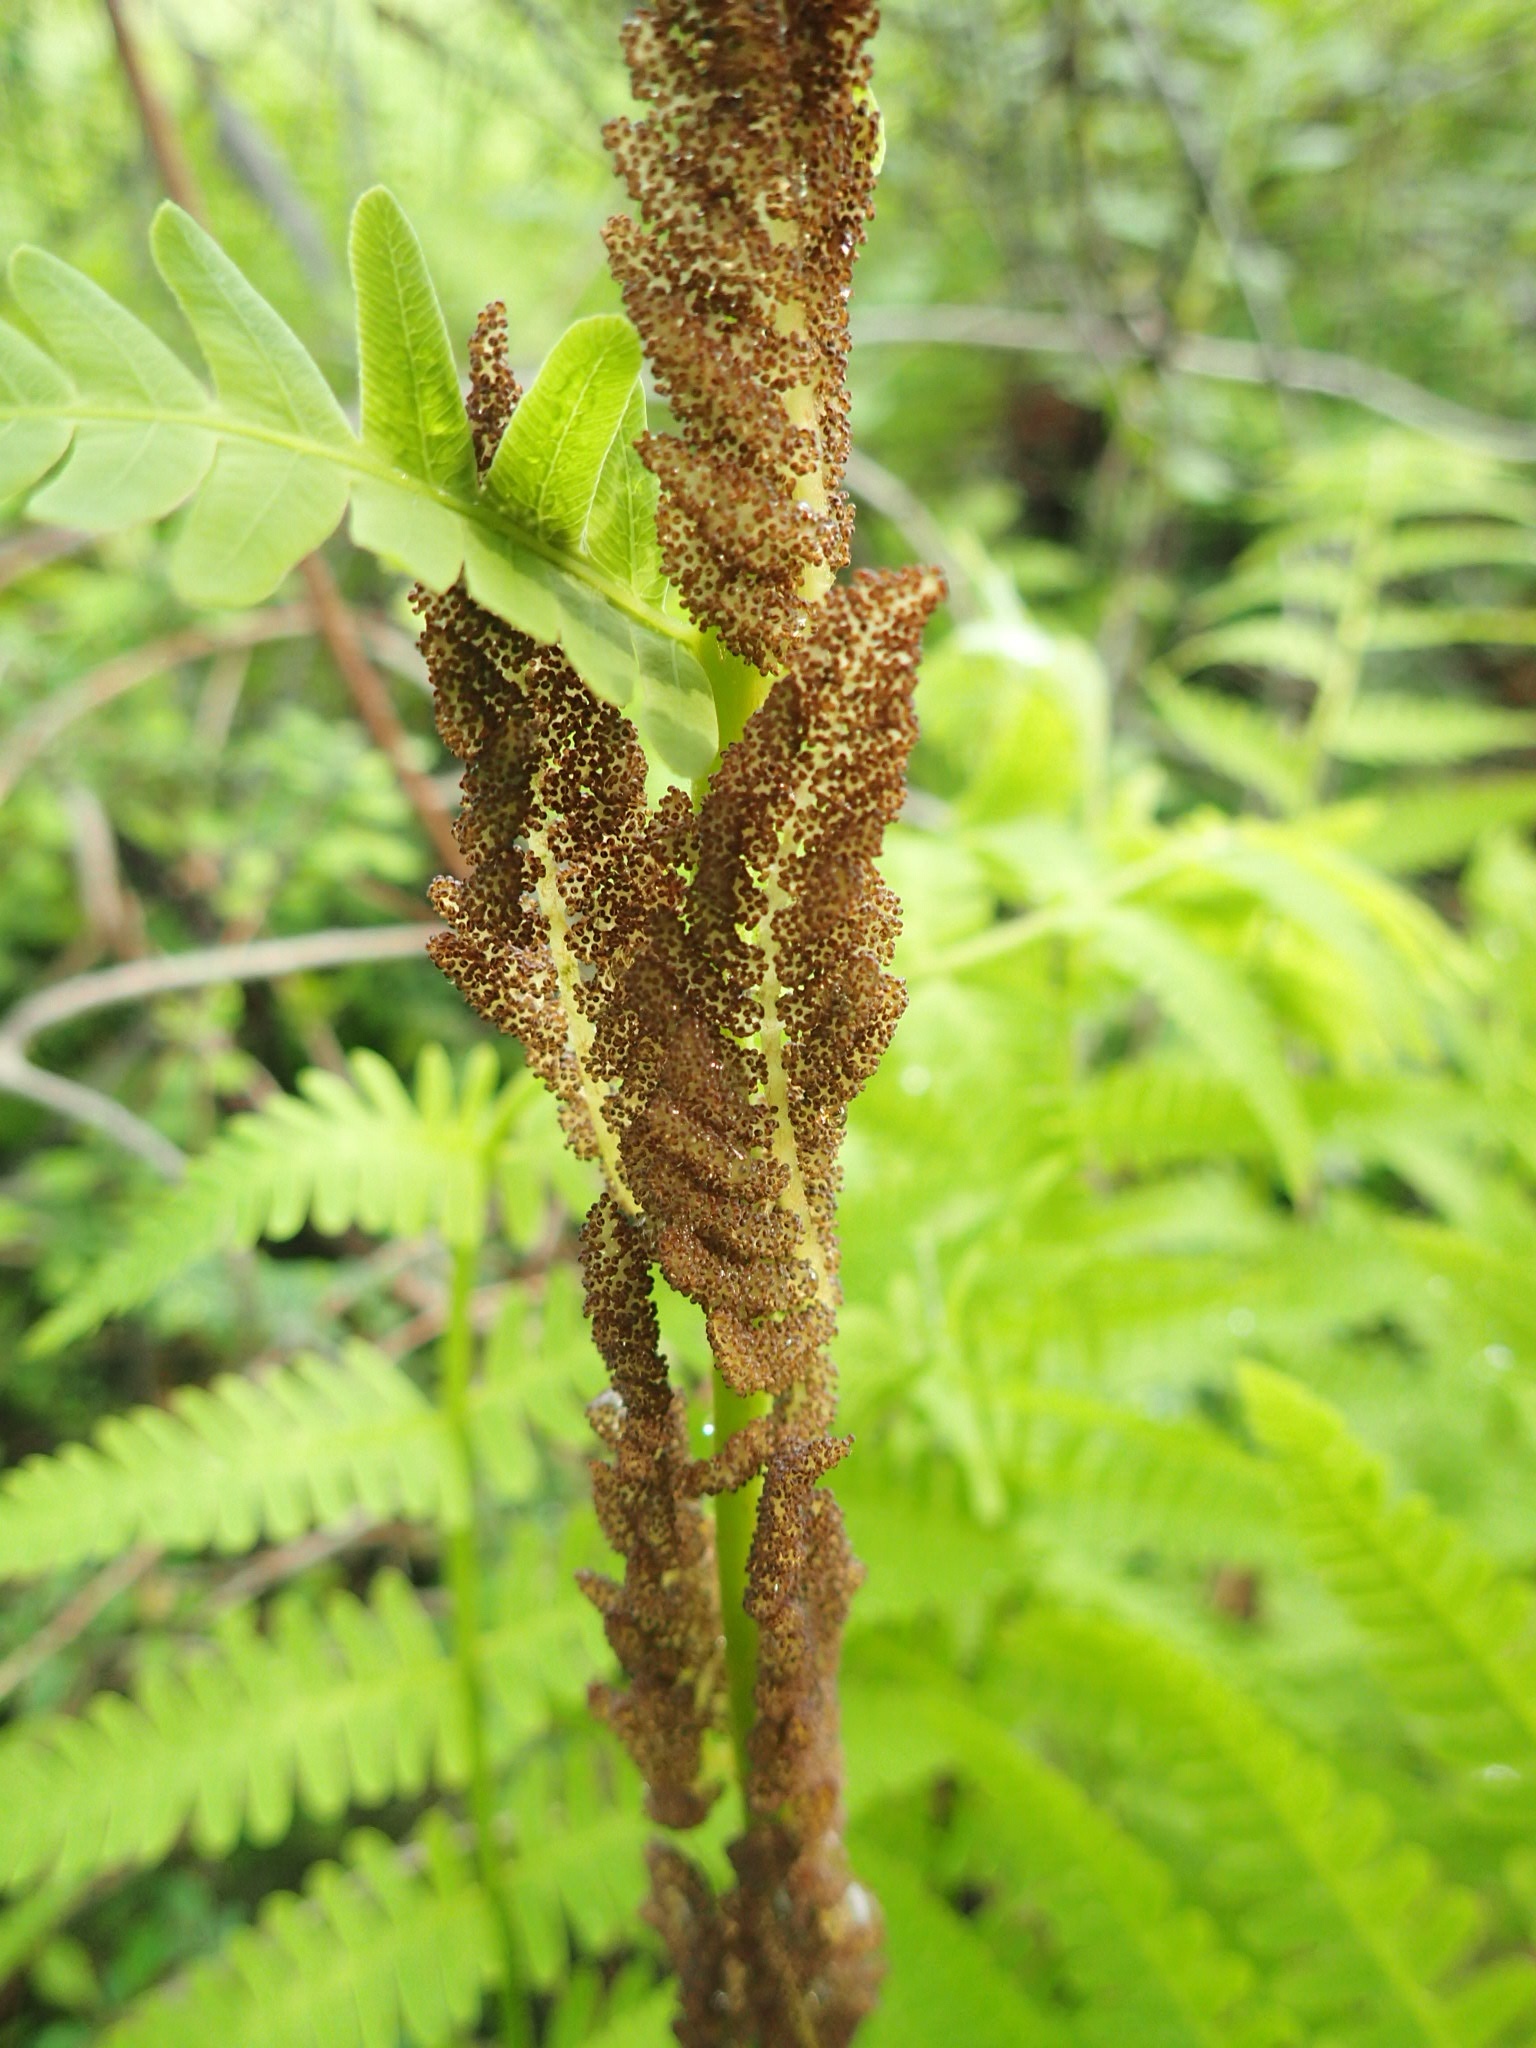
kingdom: Plantae
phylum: Tracheophyta
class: Polypodiopsida
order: Osmundales
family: Osmundaceae
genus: Claytosmunda
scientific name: Claytosmunda claytoniana
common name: Clayton's fern
